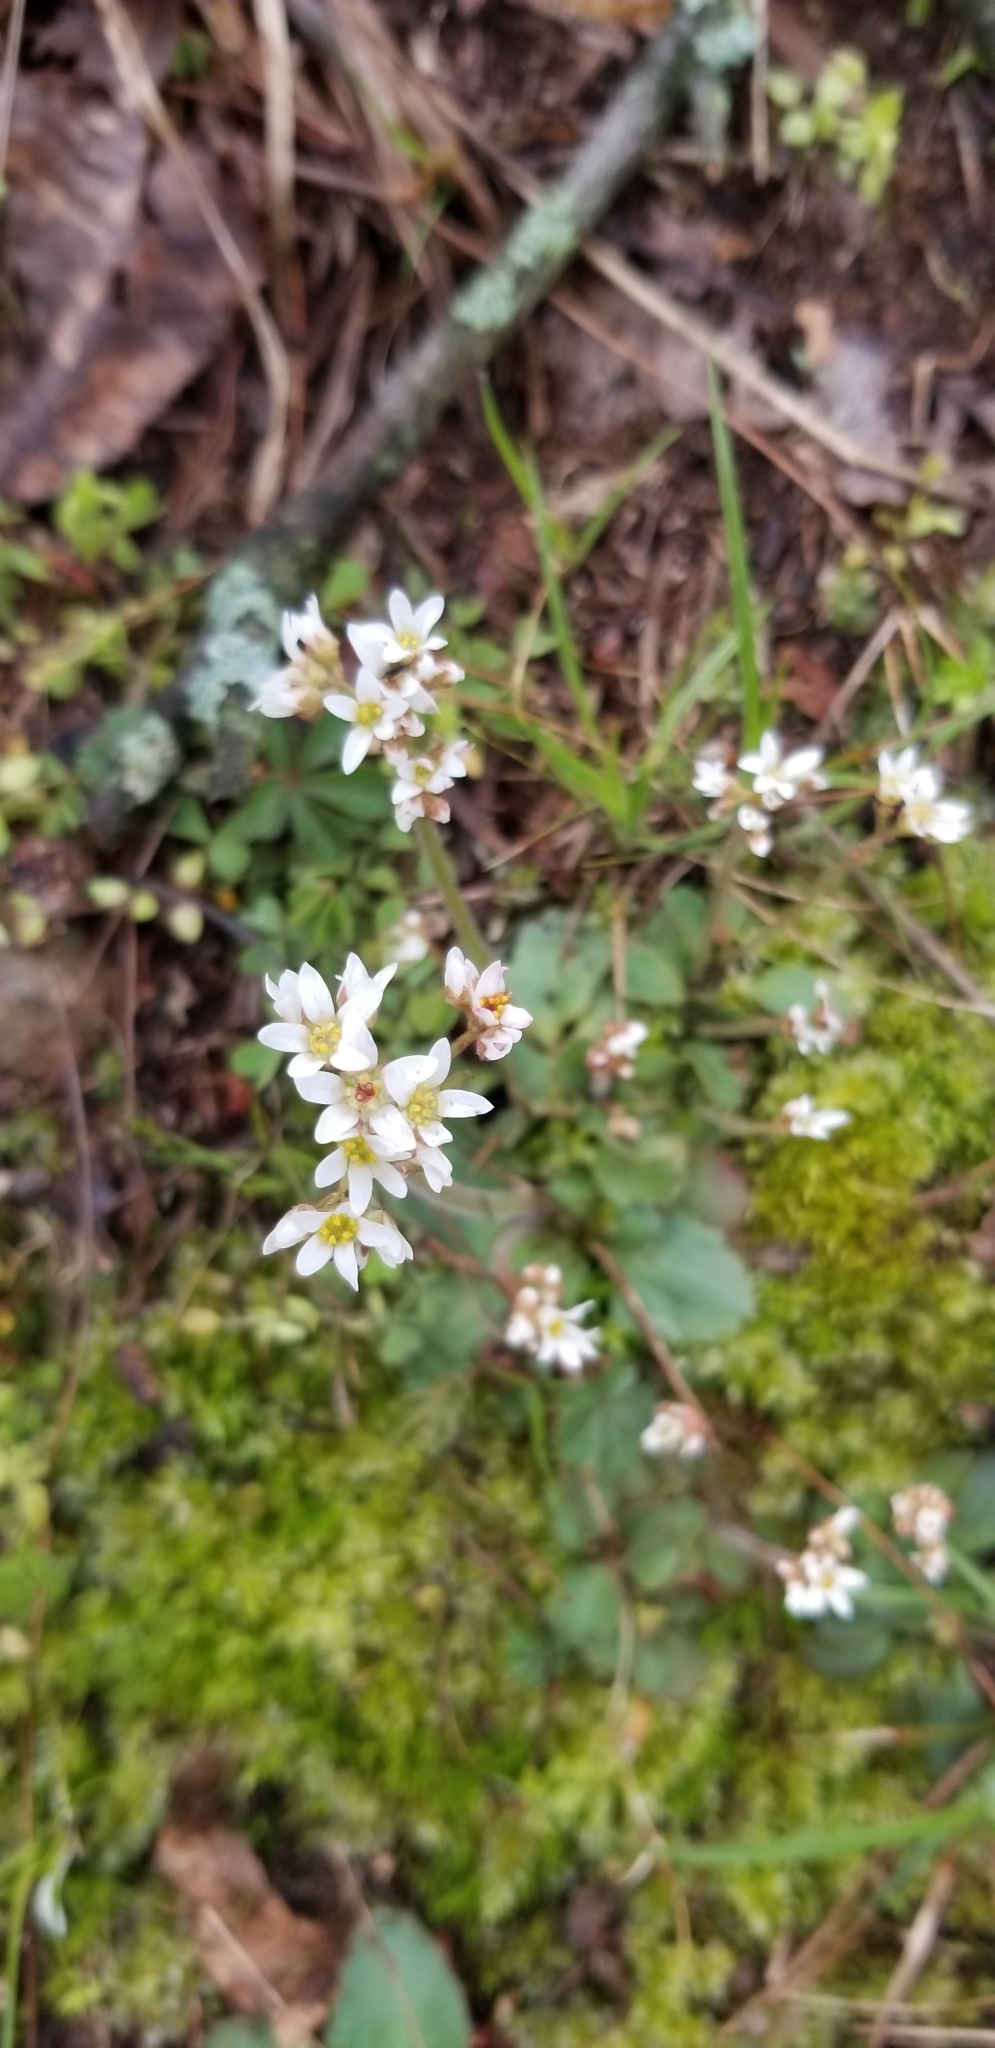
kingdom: Plantae
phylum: Tracheophyta
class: Magnoliopsida
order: Saxifragales
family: Saxifragaceae
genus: Micranthes
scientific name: Micranthes virginiensis
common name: Early saxifrage
